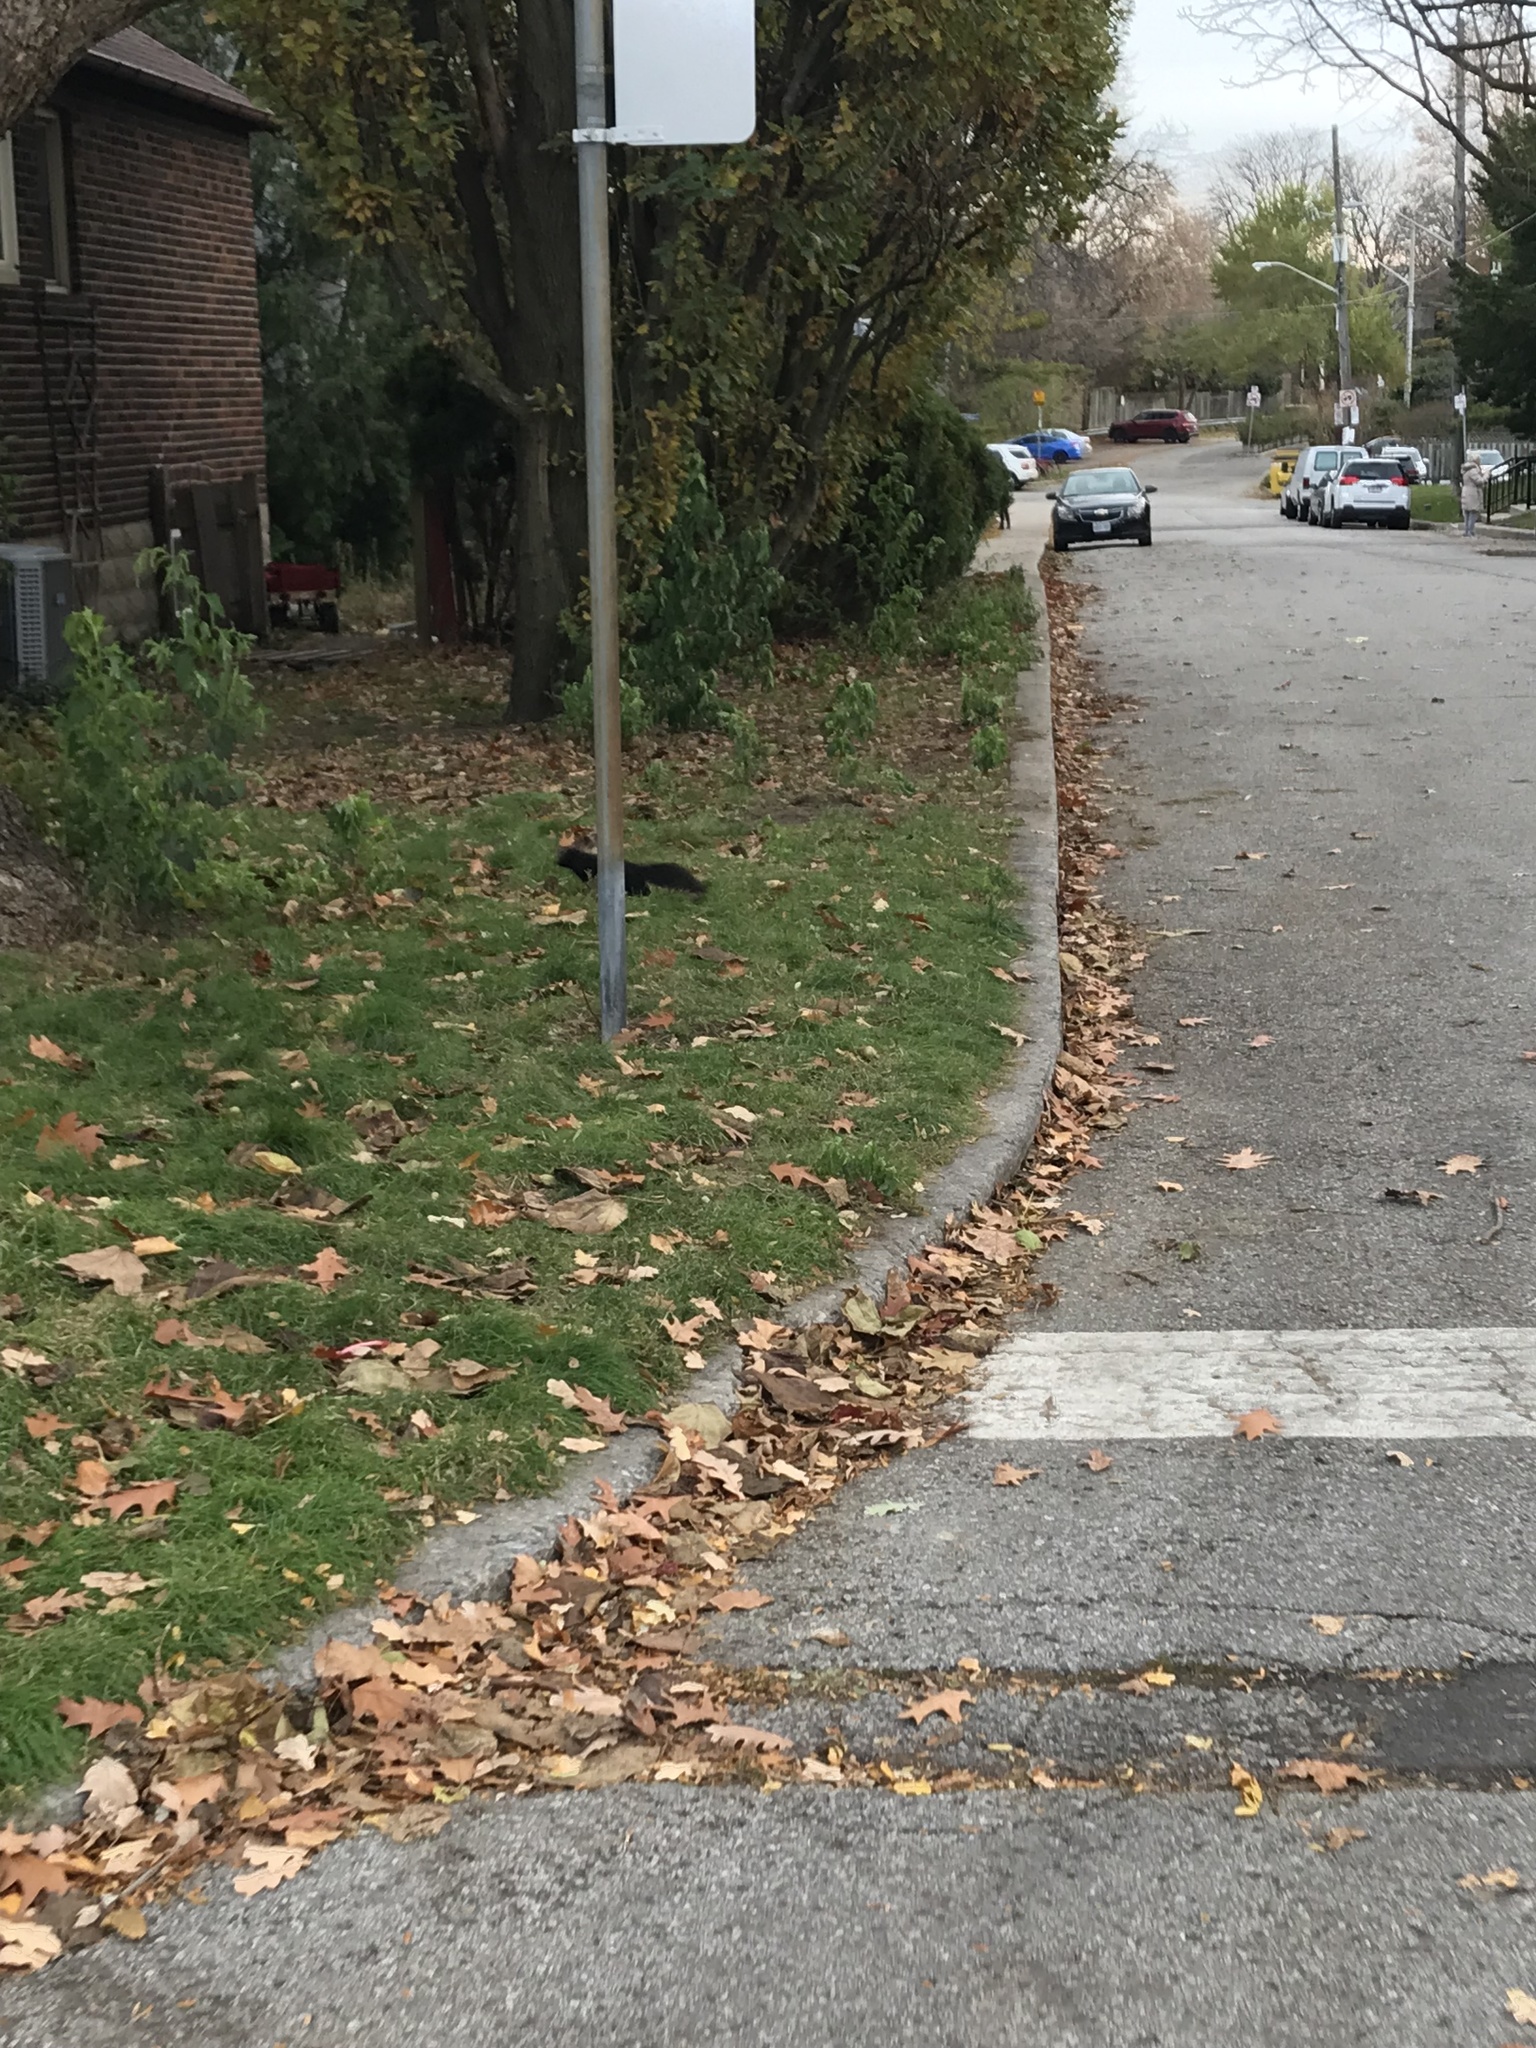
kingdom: Animalia
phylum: Chordata
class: Mammalia
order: Rodentia
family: Sciuridae
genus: Sciurus
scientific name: Sciurus carolinensis
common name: Eastern gray squirrel
